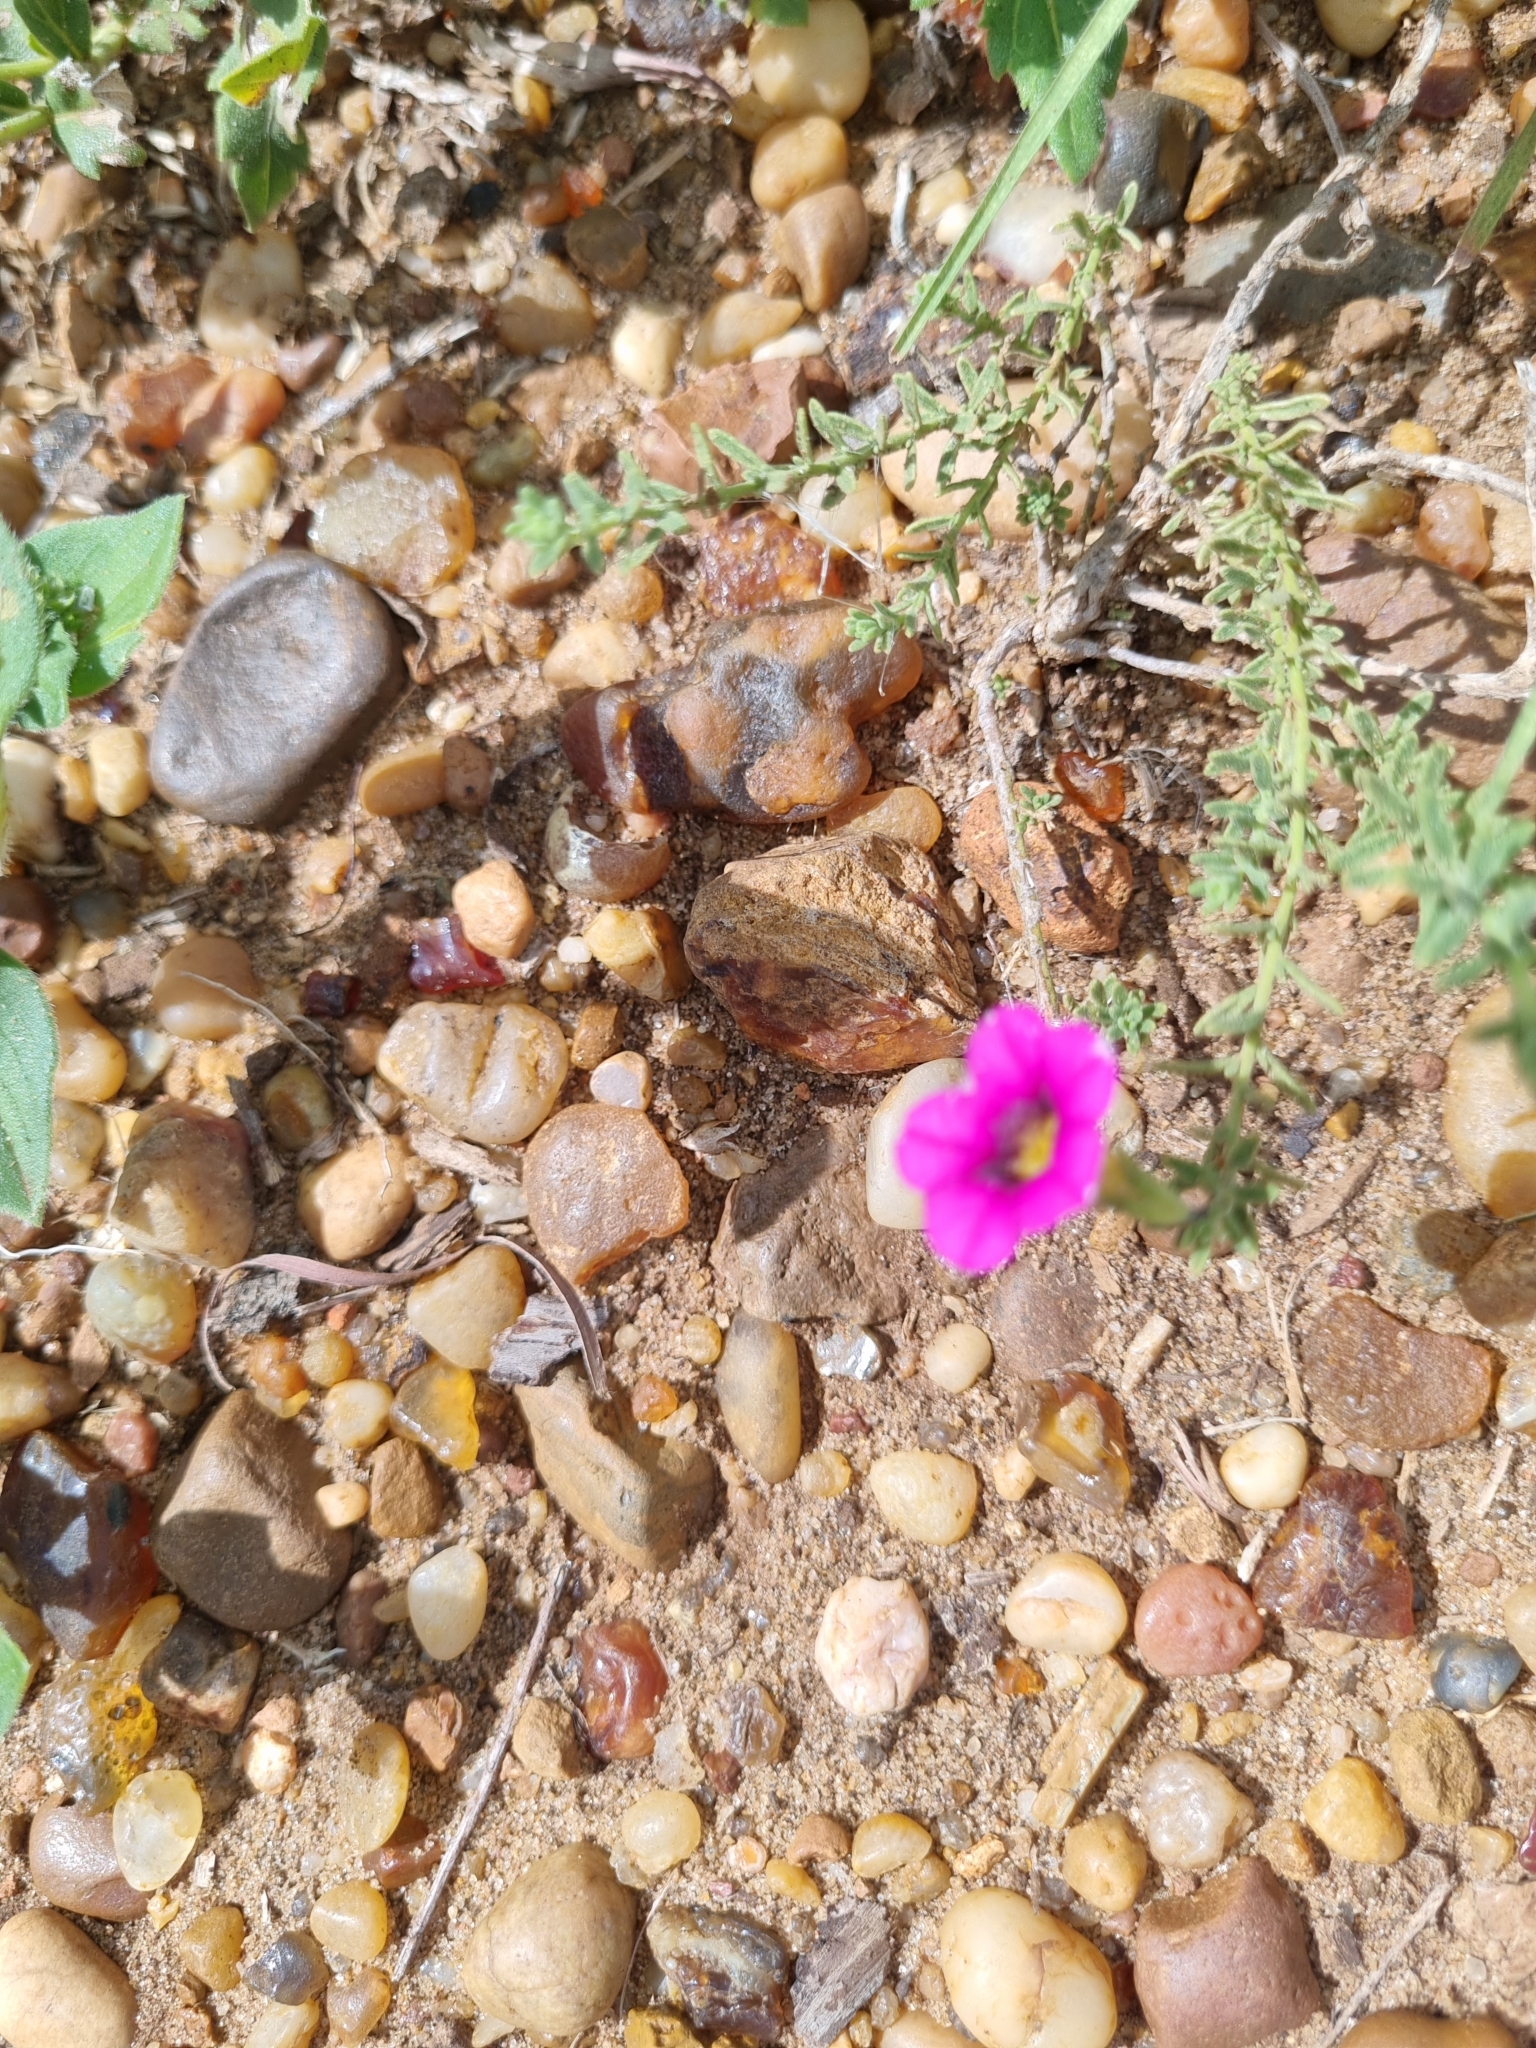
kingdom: Plantae
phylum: Tracheophyta
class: Magnoliopsida
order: Solanales
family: Solanaceae
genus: Calibrachoa
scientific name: Calibrachoa thymifolia
